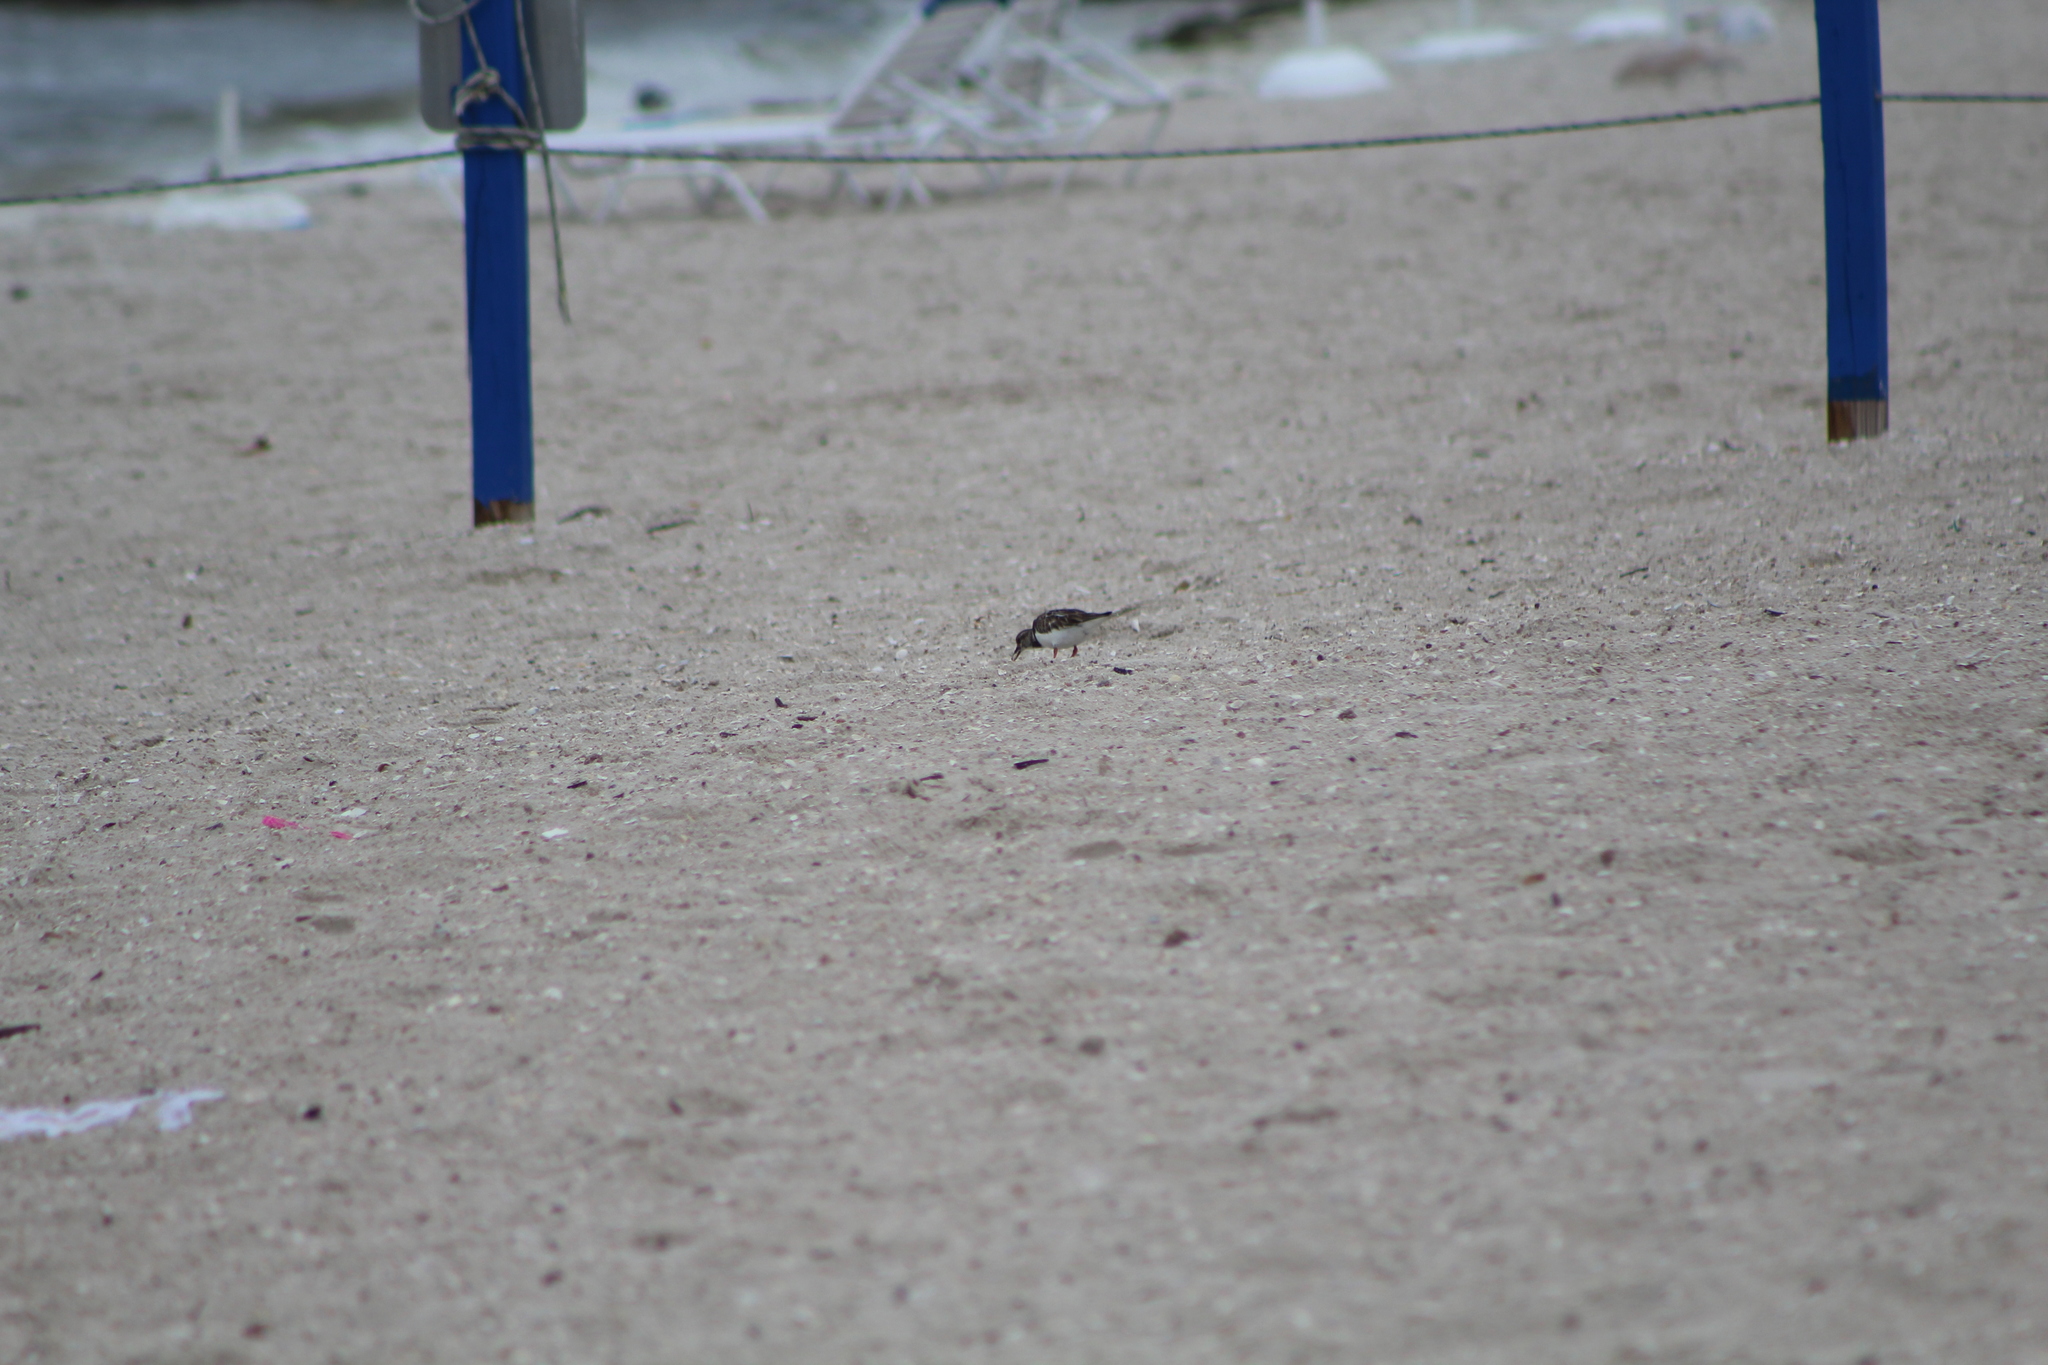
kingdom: Animalia
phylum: Chordata
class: Aves
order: Charadriiformes
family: Scolopacidae
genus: Arenaria
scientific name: Arenaria interpres
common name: Ruddy turnstone
